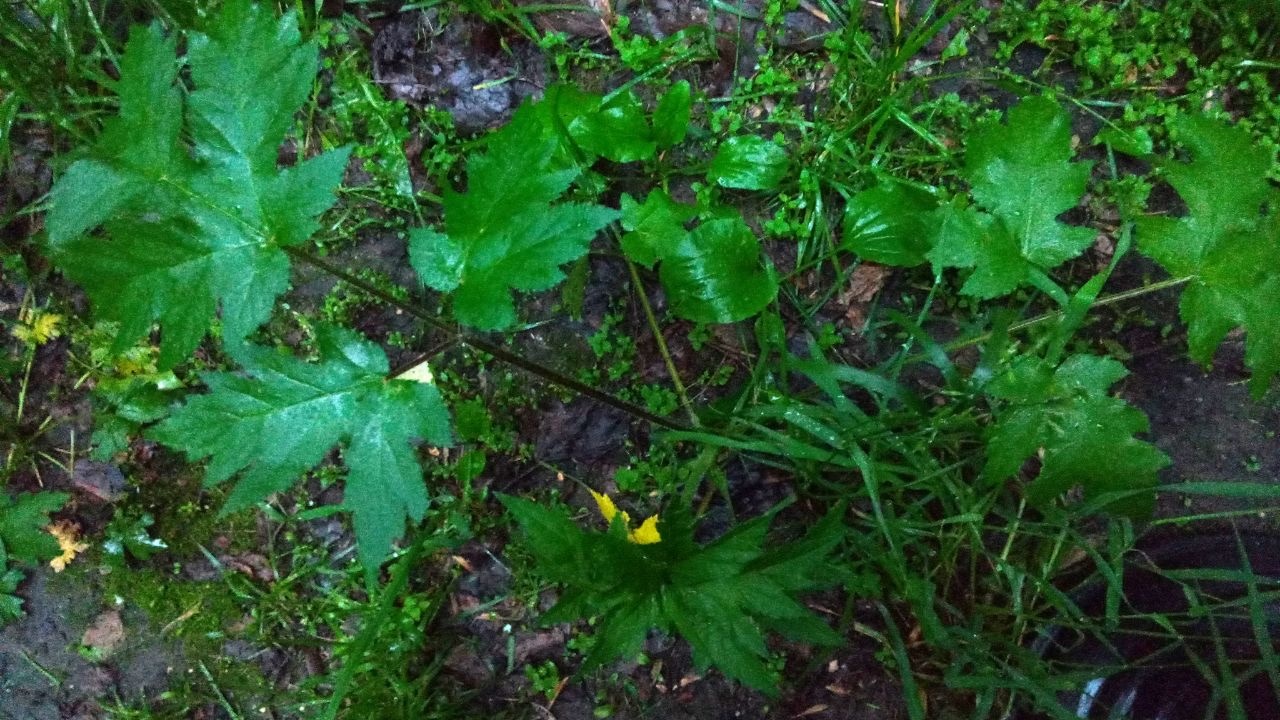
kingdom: Plantae
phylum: Tracheophyta
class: Magnoliopsida
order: Apiales
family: Apiaceae
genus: Heracleum
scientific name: Heracleum sphondylium
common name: Hogweed
